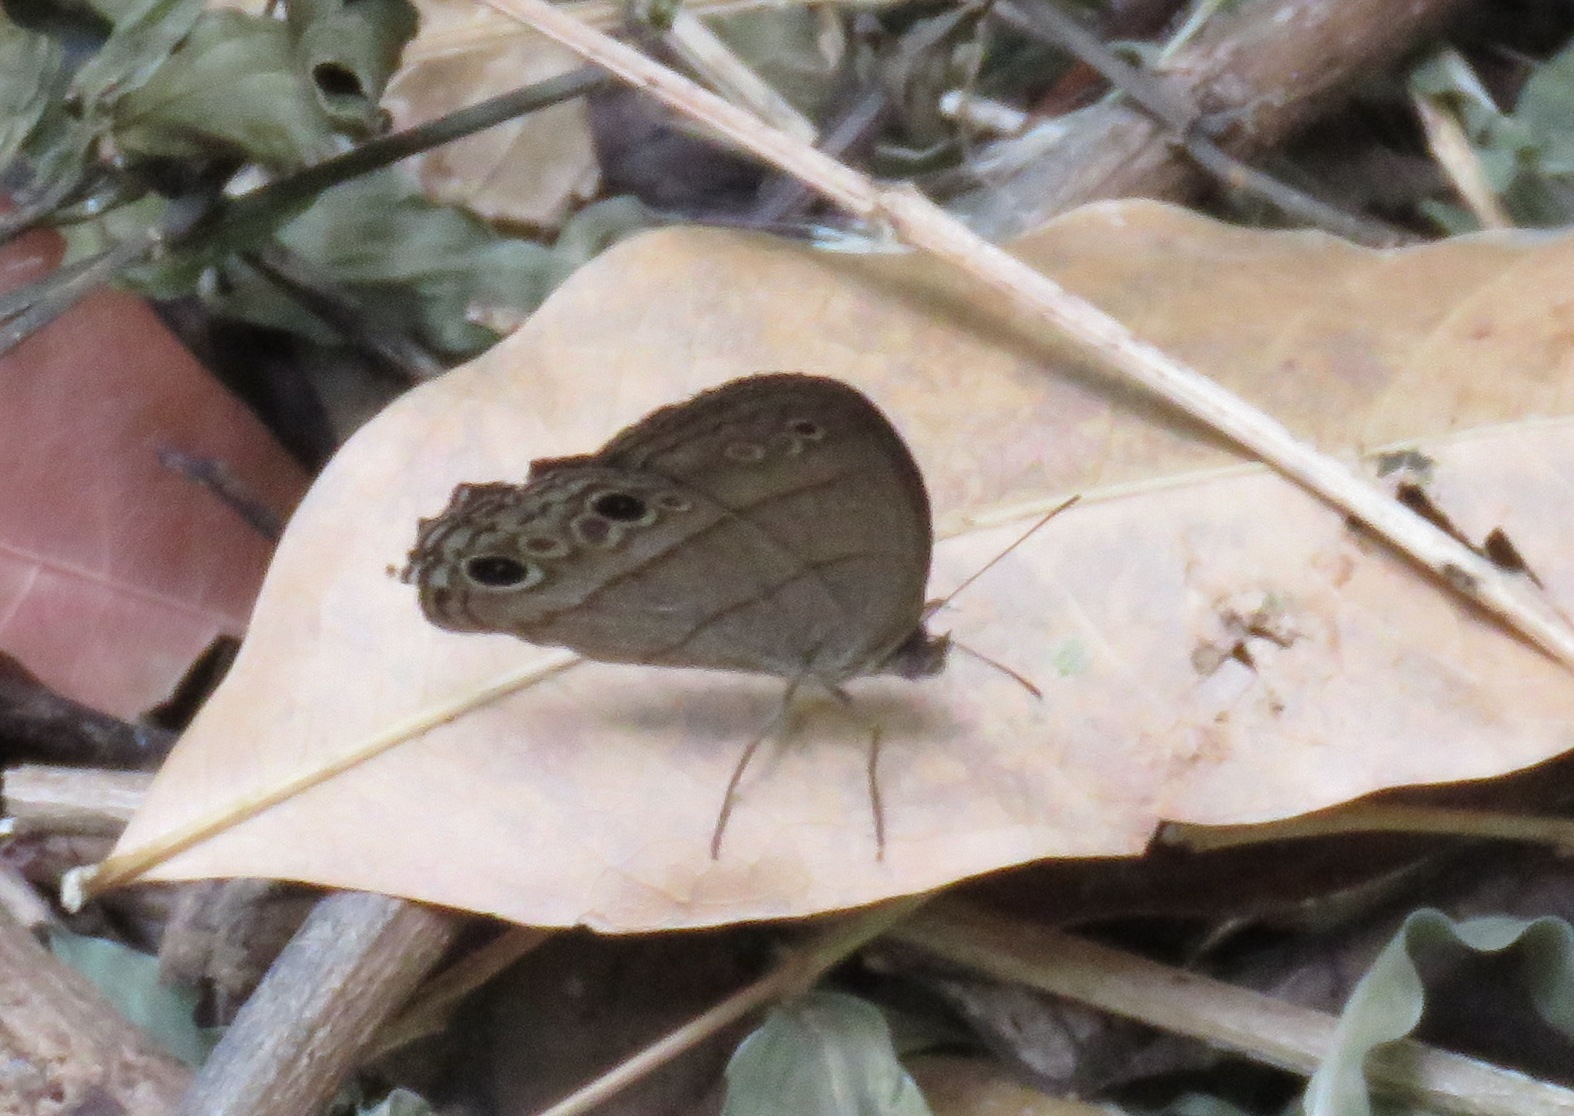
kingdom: Animalia
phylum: Arthropoda
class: Insecta
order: Lepidoptera
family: Nymphalidae
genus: Vareuptychia
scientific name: Vareuptychia similis
